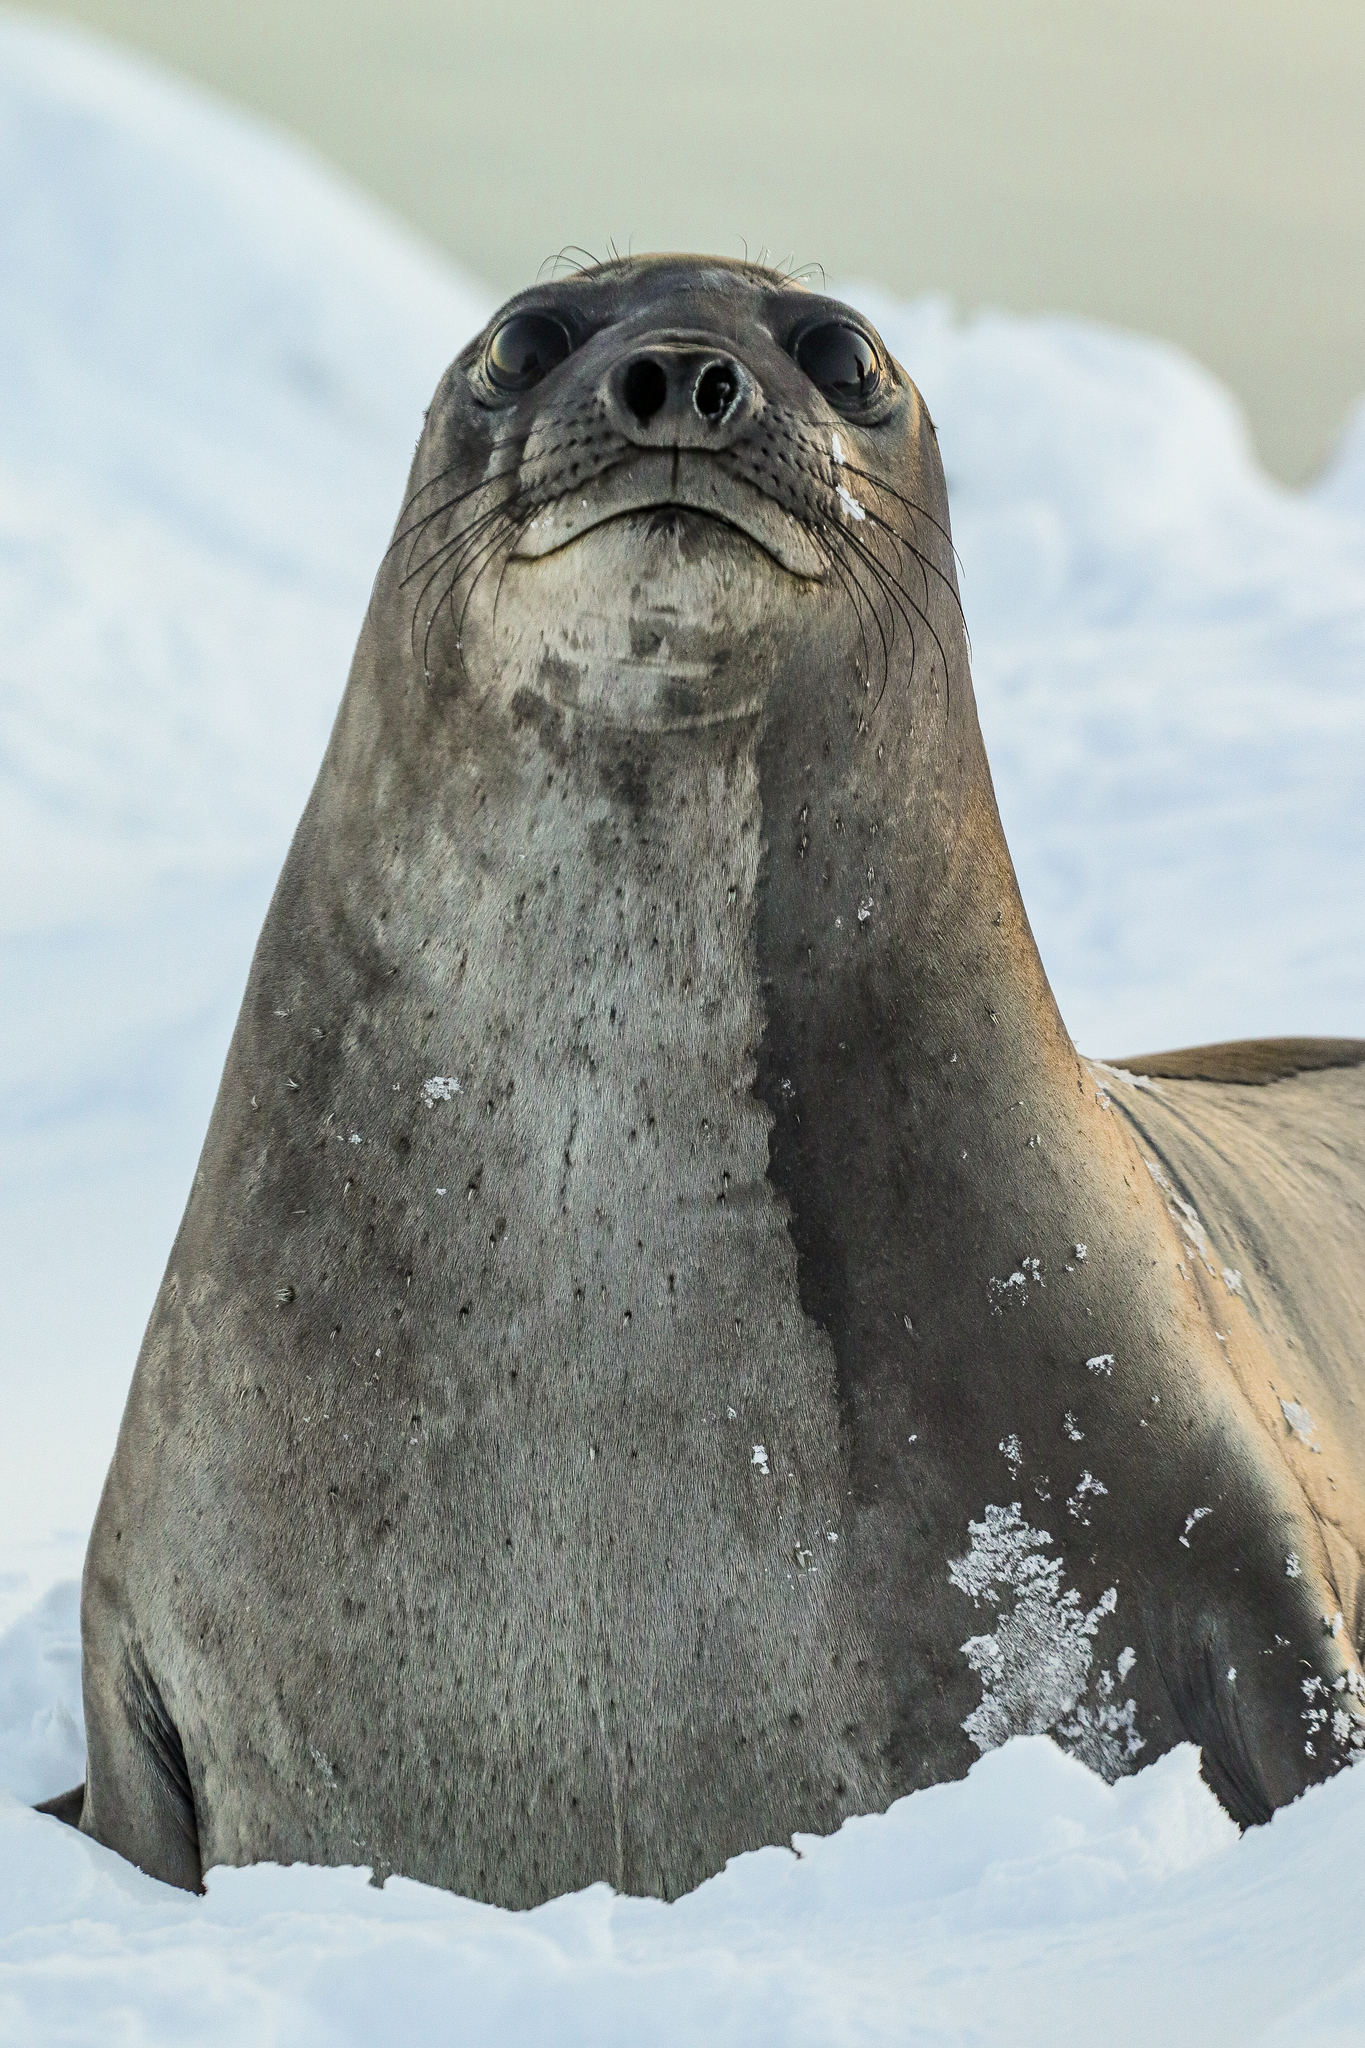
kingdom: Animalia
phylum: Chordata
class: Mammalia
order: Carnivora
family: Phocidae
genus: Mirounga
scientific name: Mirounga leonina
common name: Southern elephant seal
